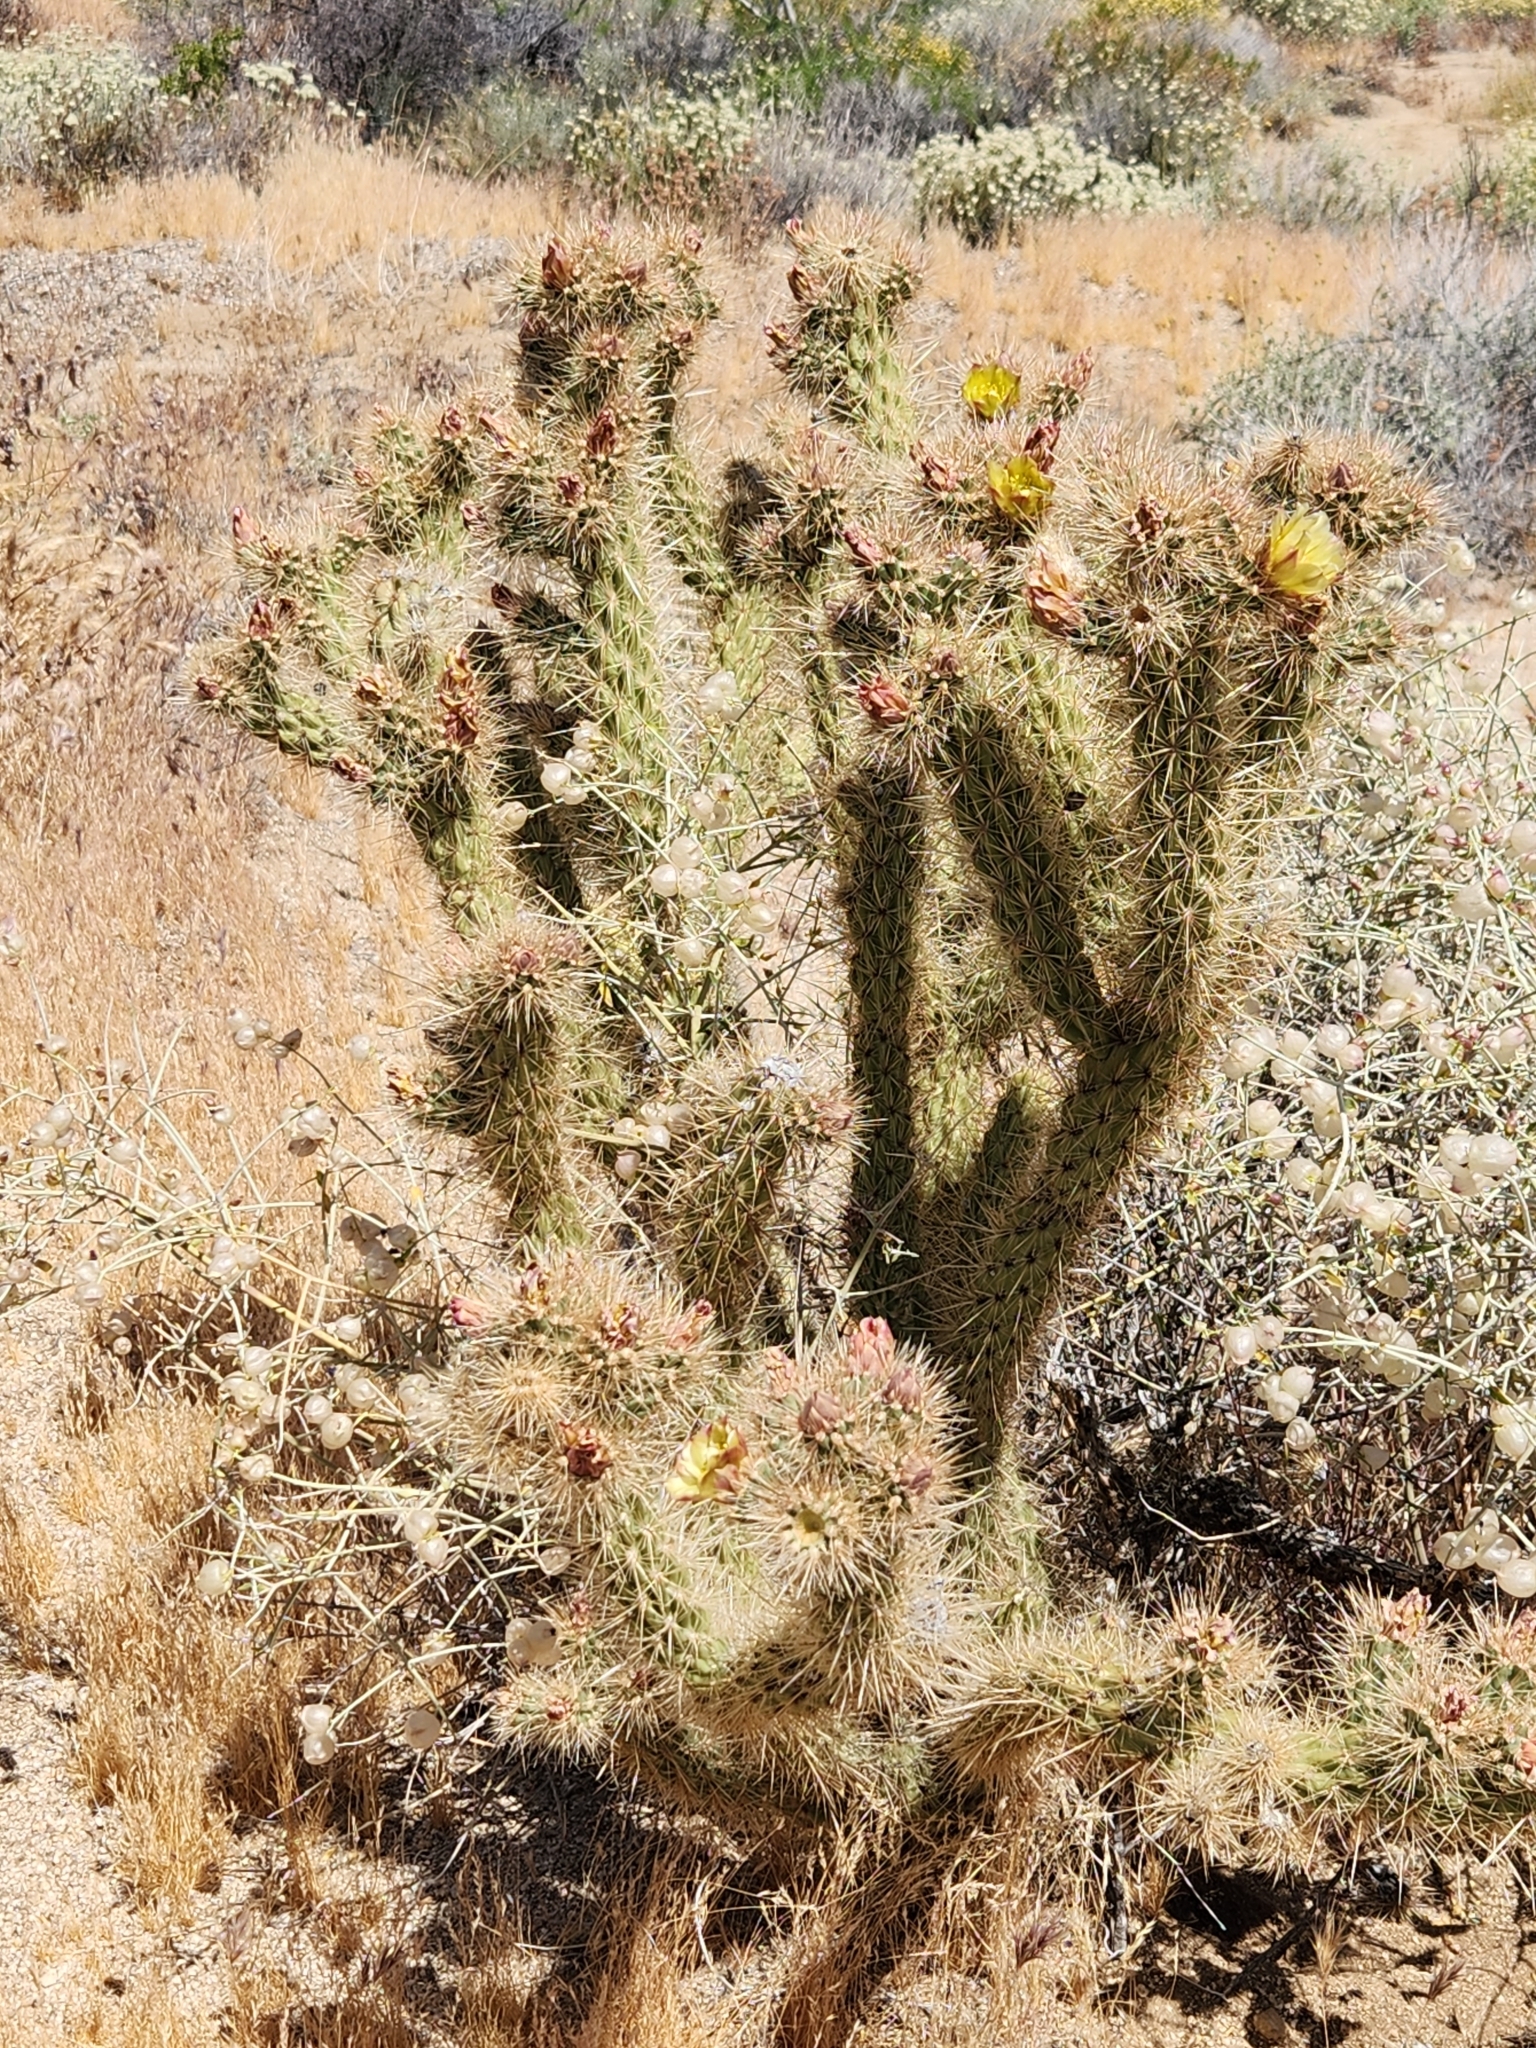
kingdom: Plantae
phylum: Tracheophyta
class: Magnoliopsida
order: Caryophyllales
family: Cactaceae
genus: Cylindropuntia
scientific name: Cylindropuntia ganderi
